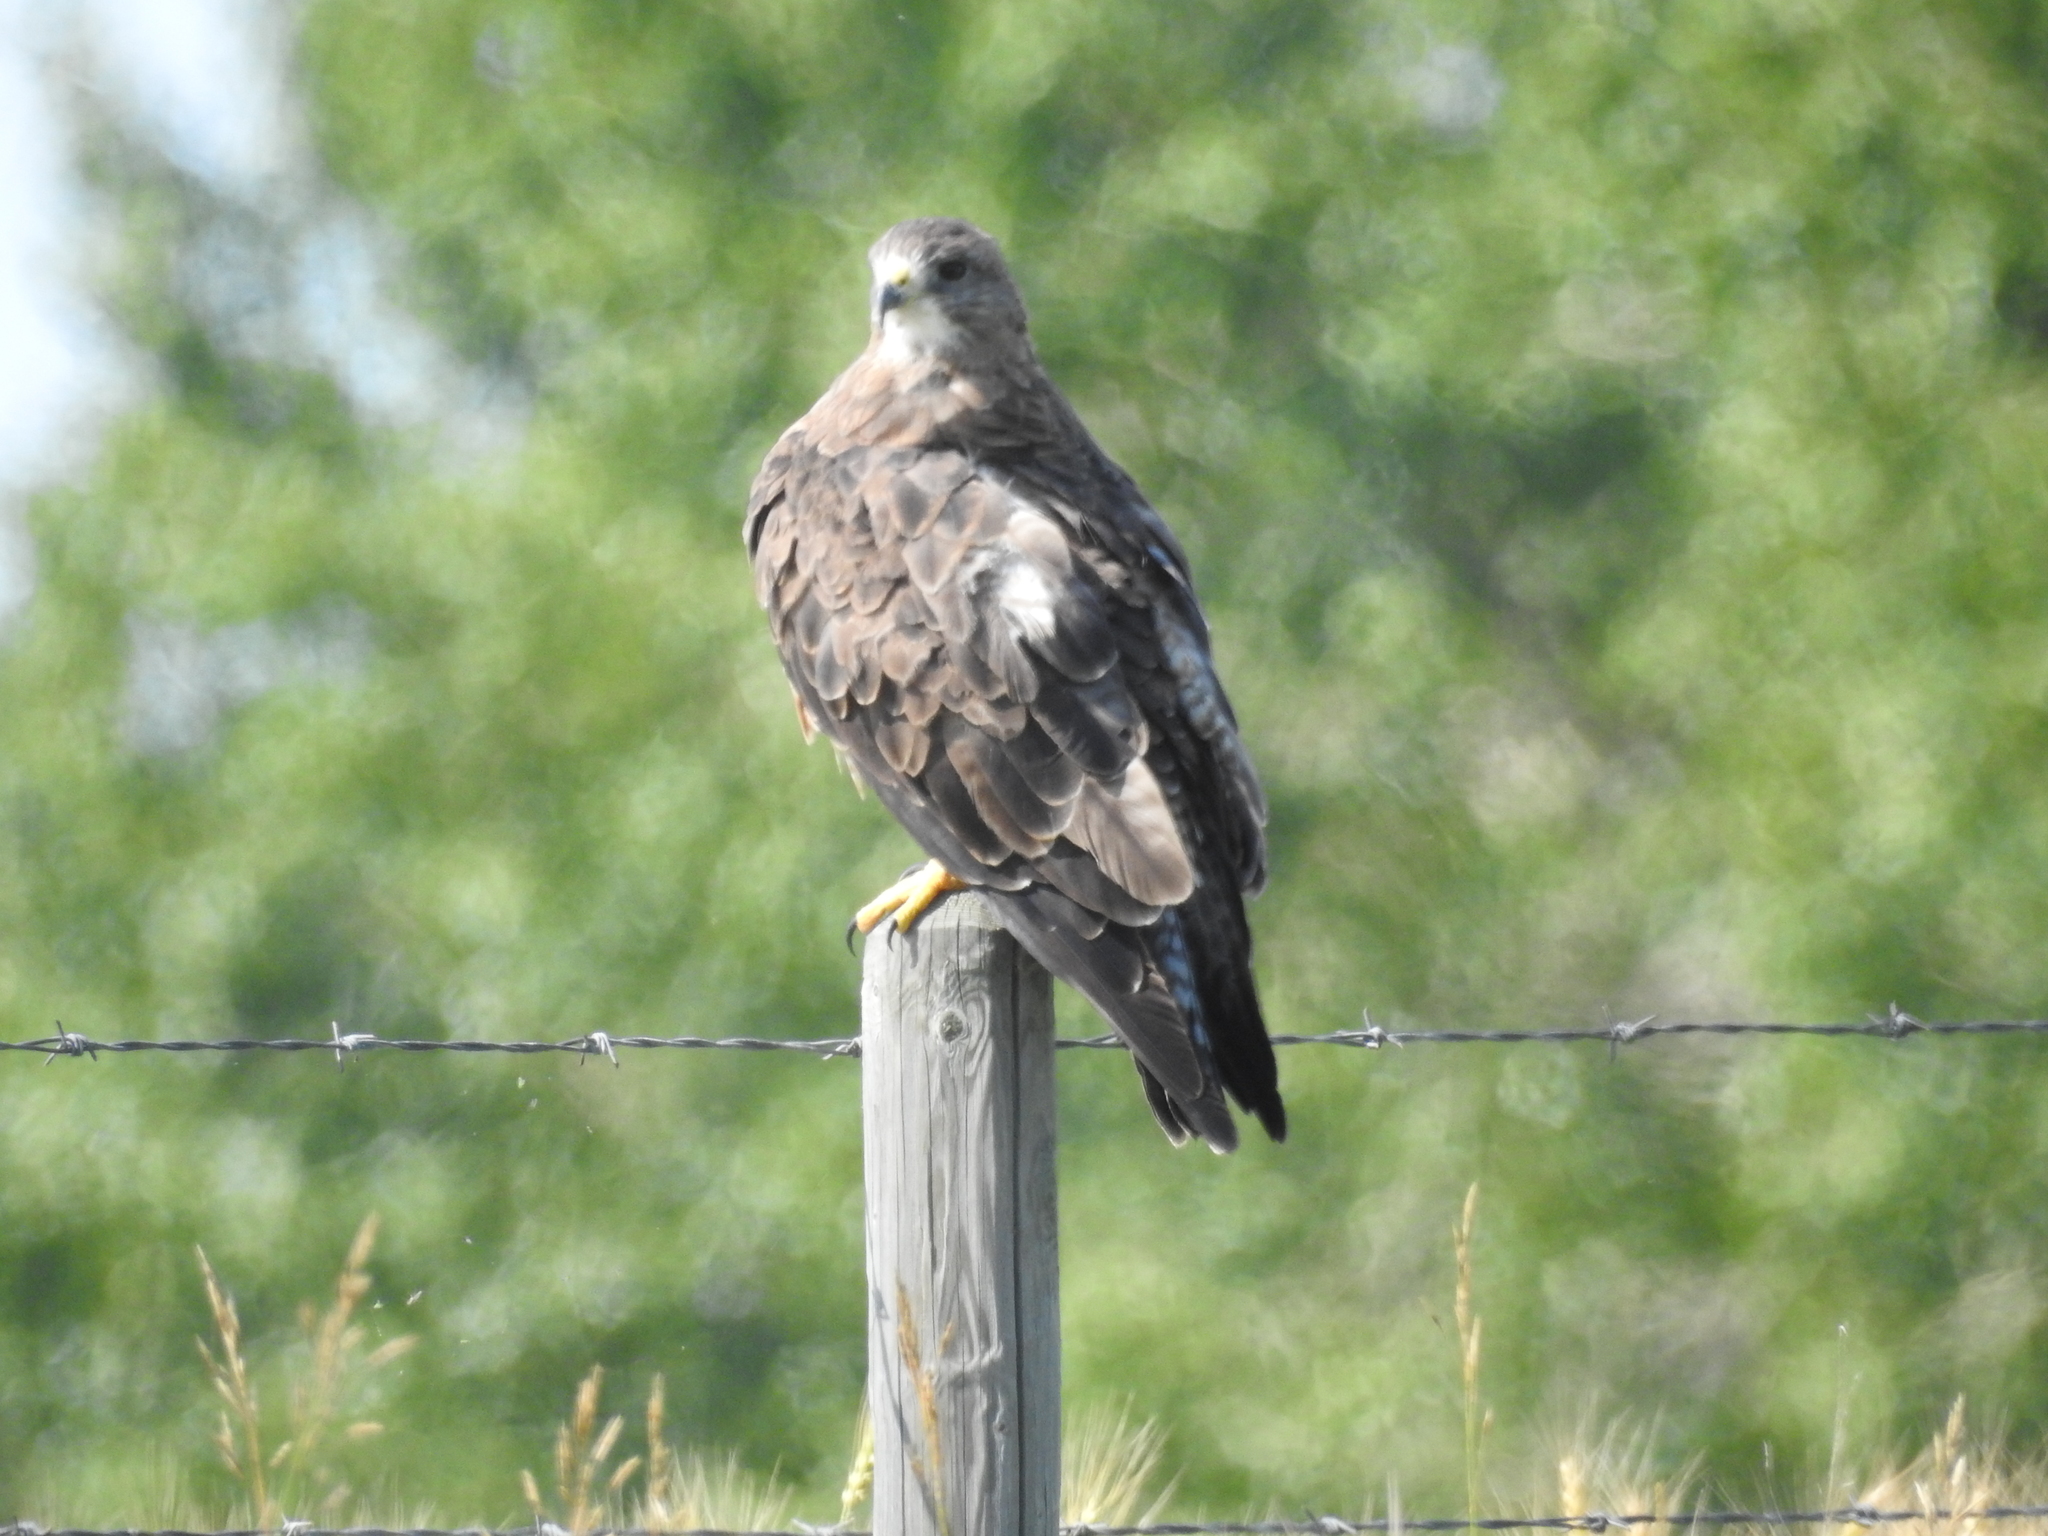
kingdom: Animalia
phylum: Chordata
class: Aves
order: Accipitriformes
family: Accipitridae
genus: Buteo
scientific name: Buteo swainsoni
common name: Swainson's hawk
